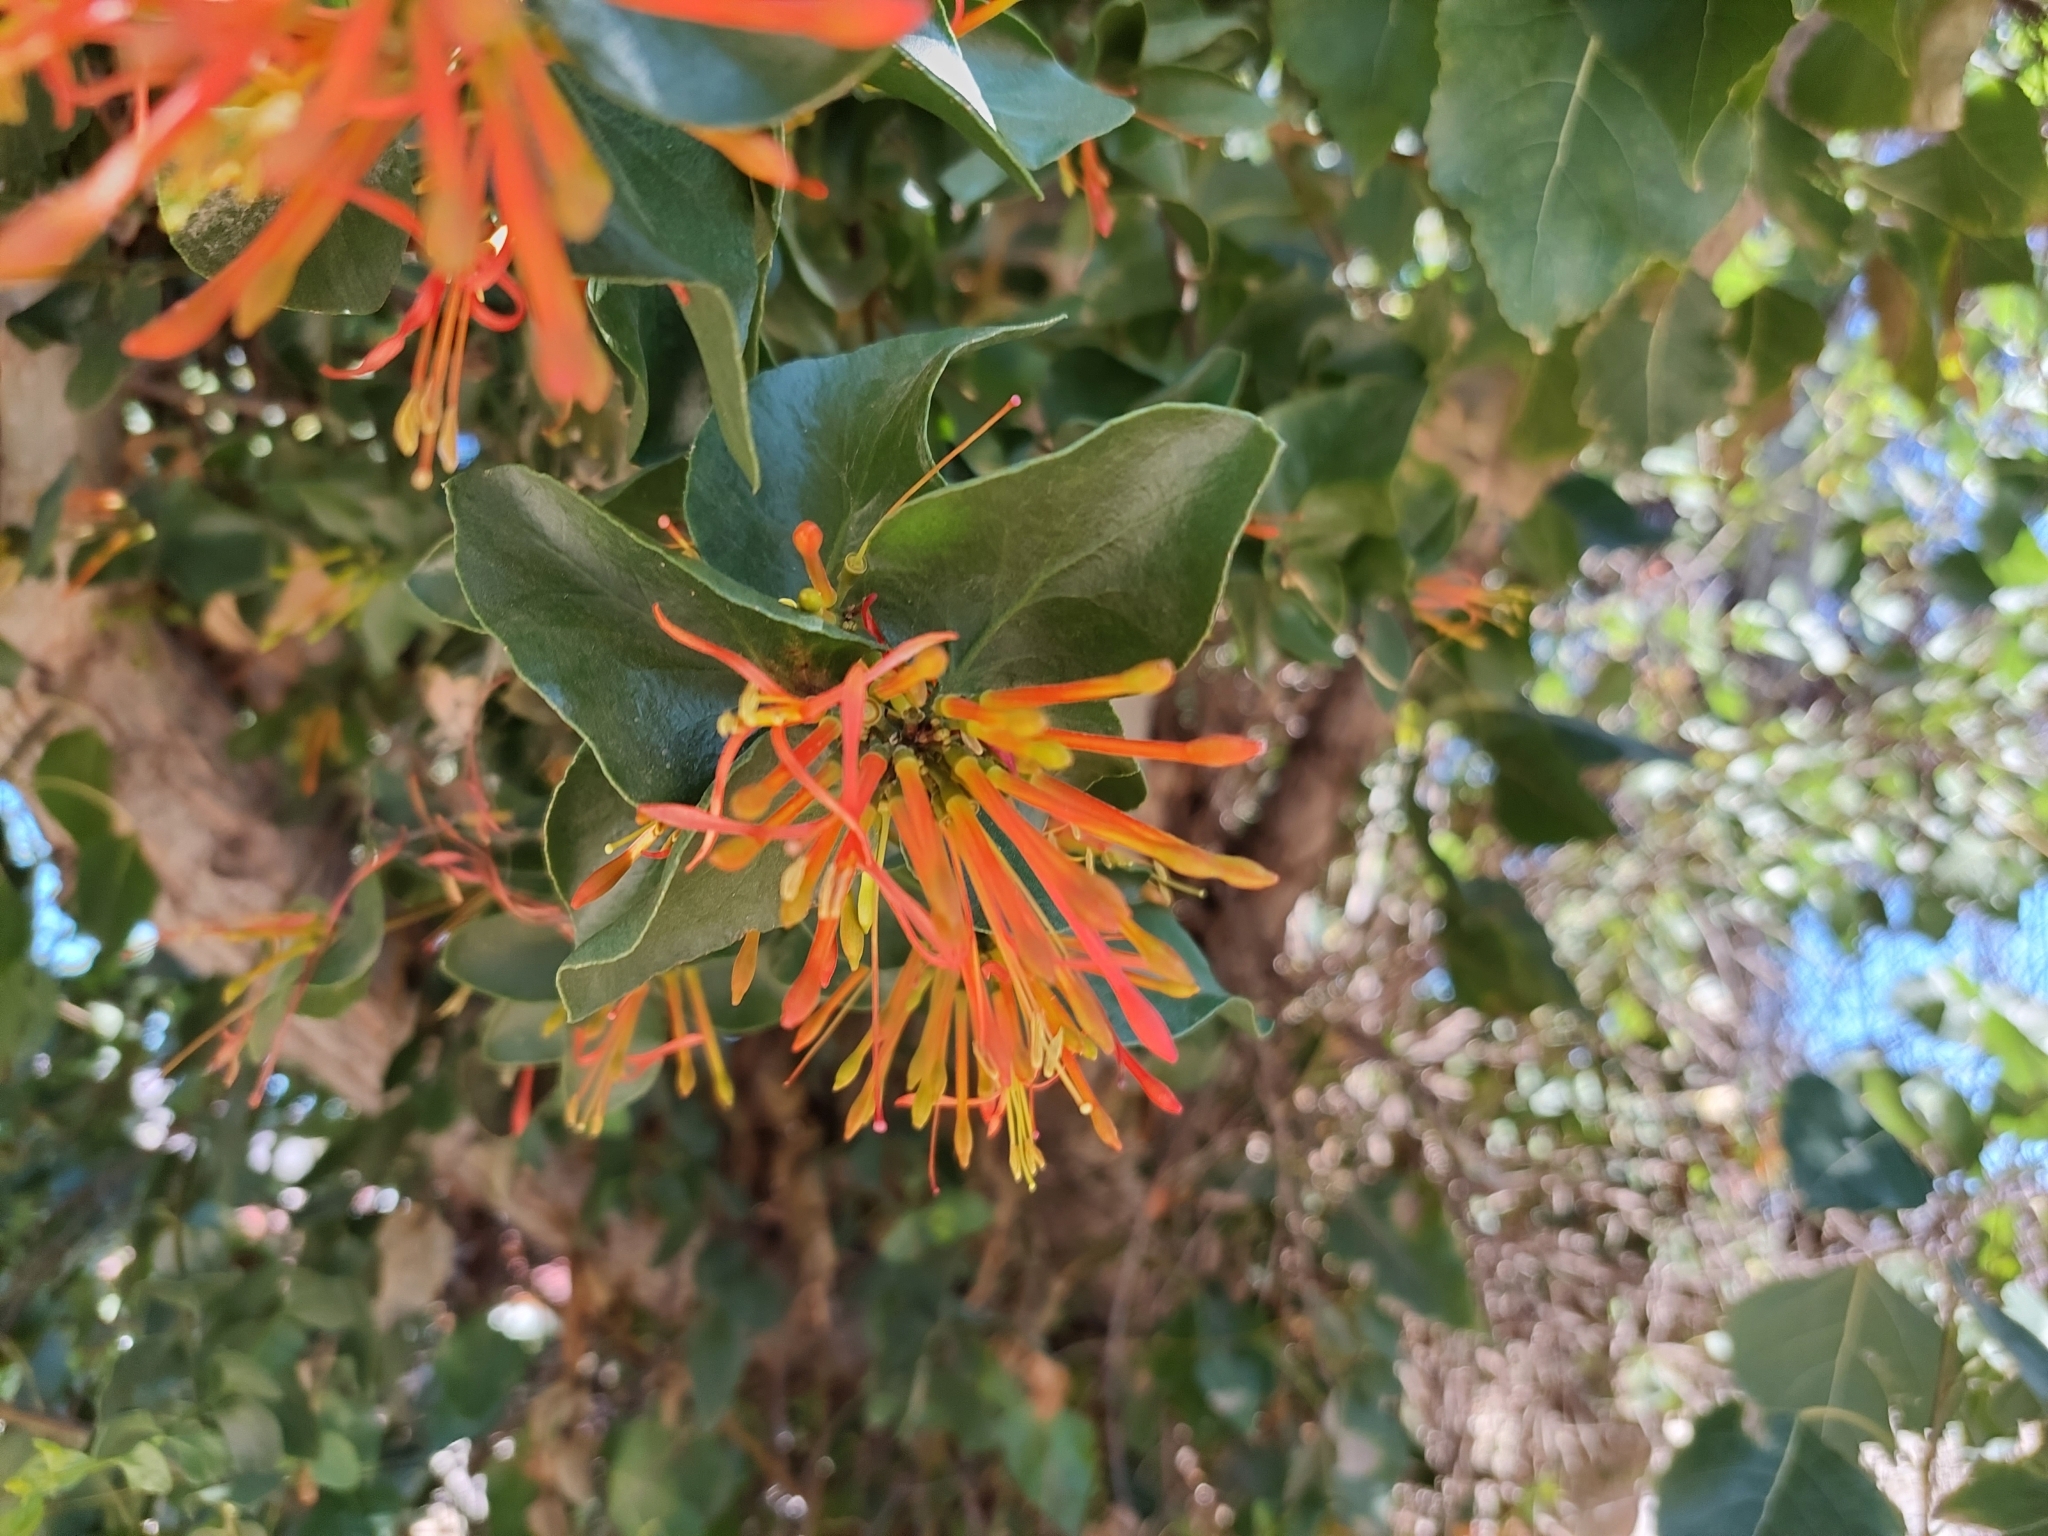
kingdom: Plantae
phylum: Tracheophyta
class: Magnoliopsida
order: Santalales
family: Loranthaceae
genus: Tristerix
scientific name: Tristerix corymbosus
